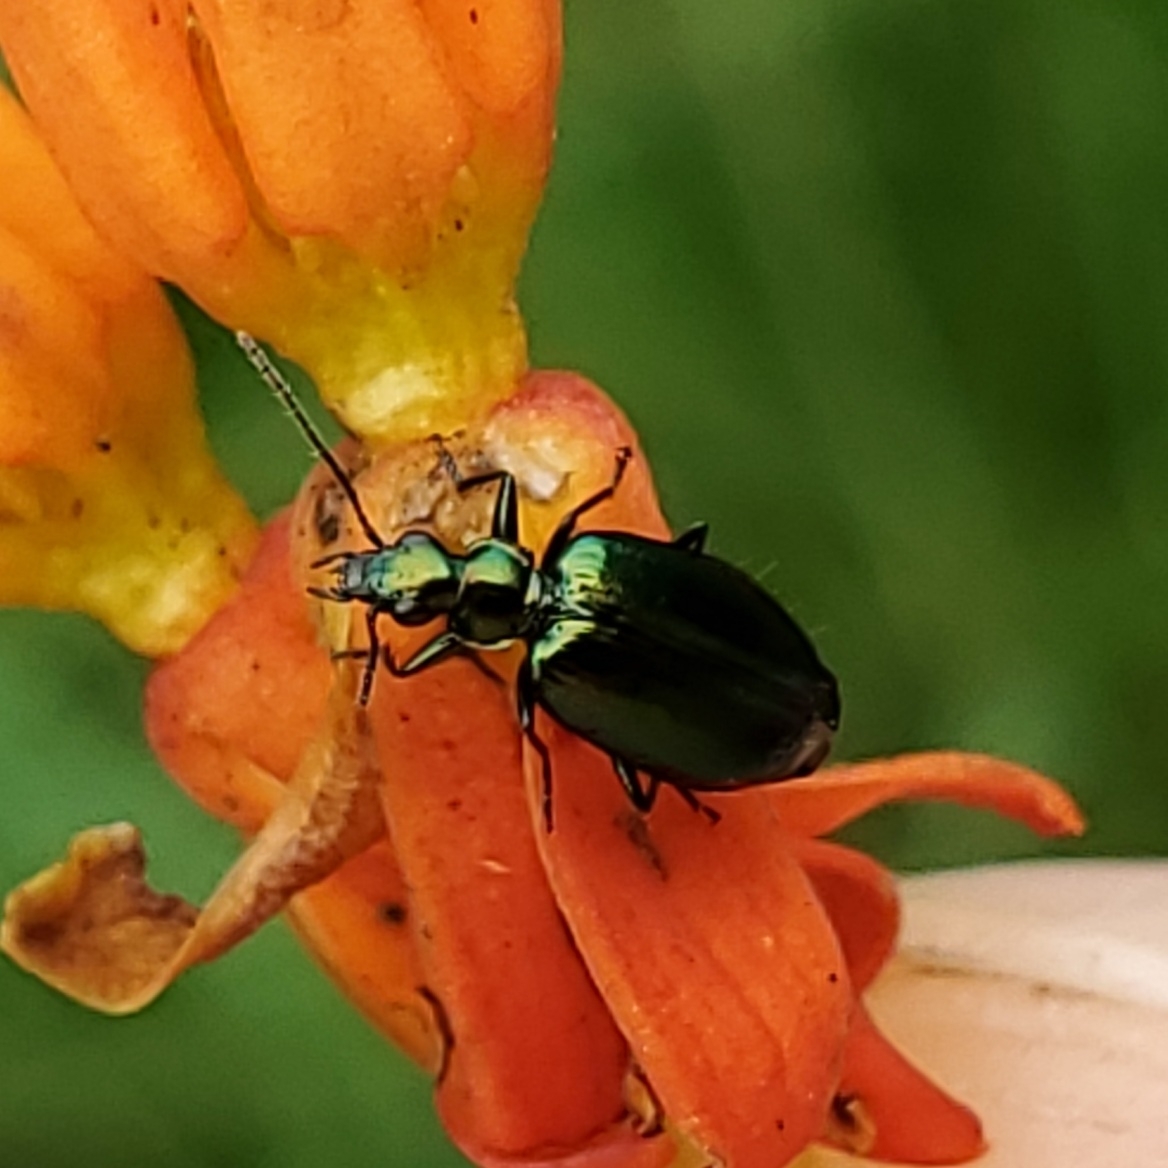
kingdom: Animalia
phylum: Arthropoda
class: Insecta
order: Coleoptera
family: Carabidae
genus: Lebia
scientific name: Lebia viridis
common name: Flower lebia beetle
